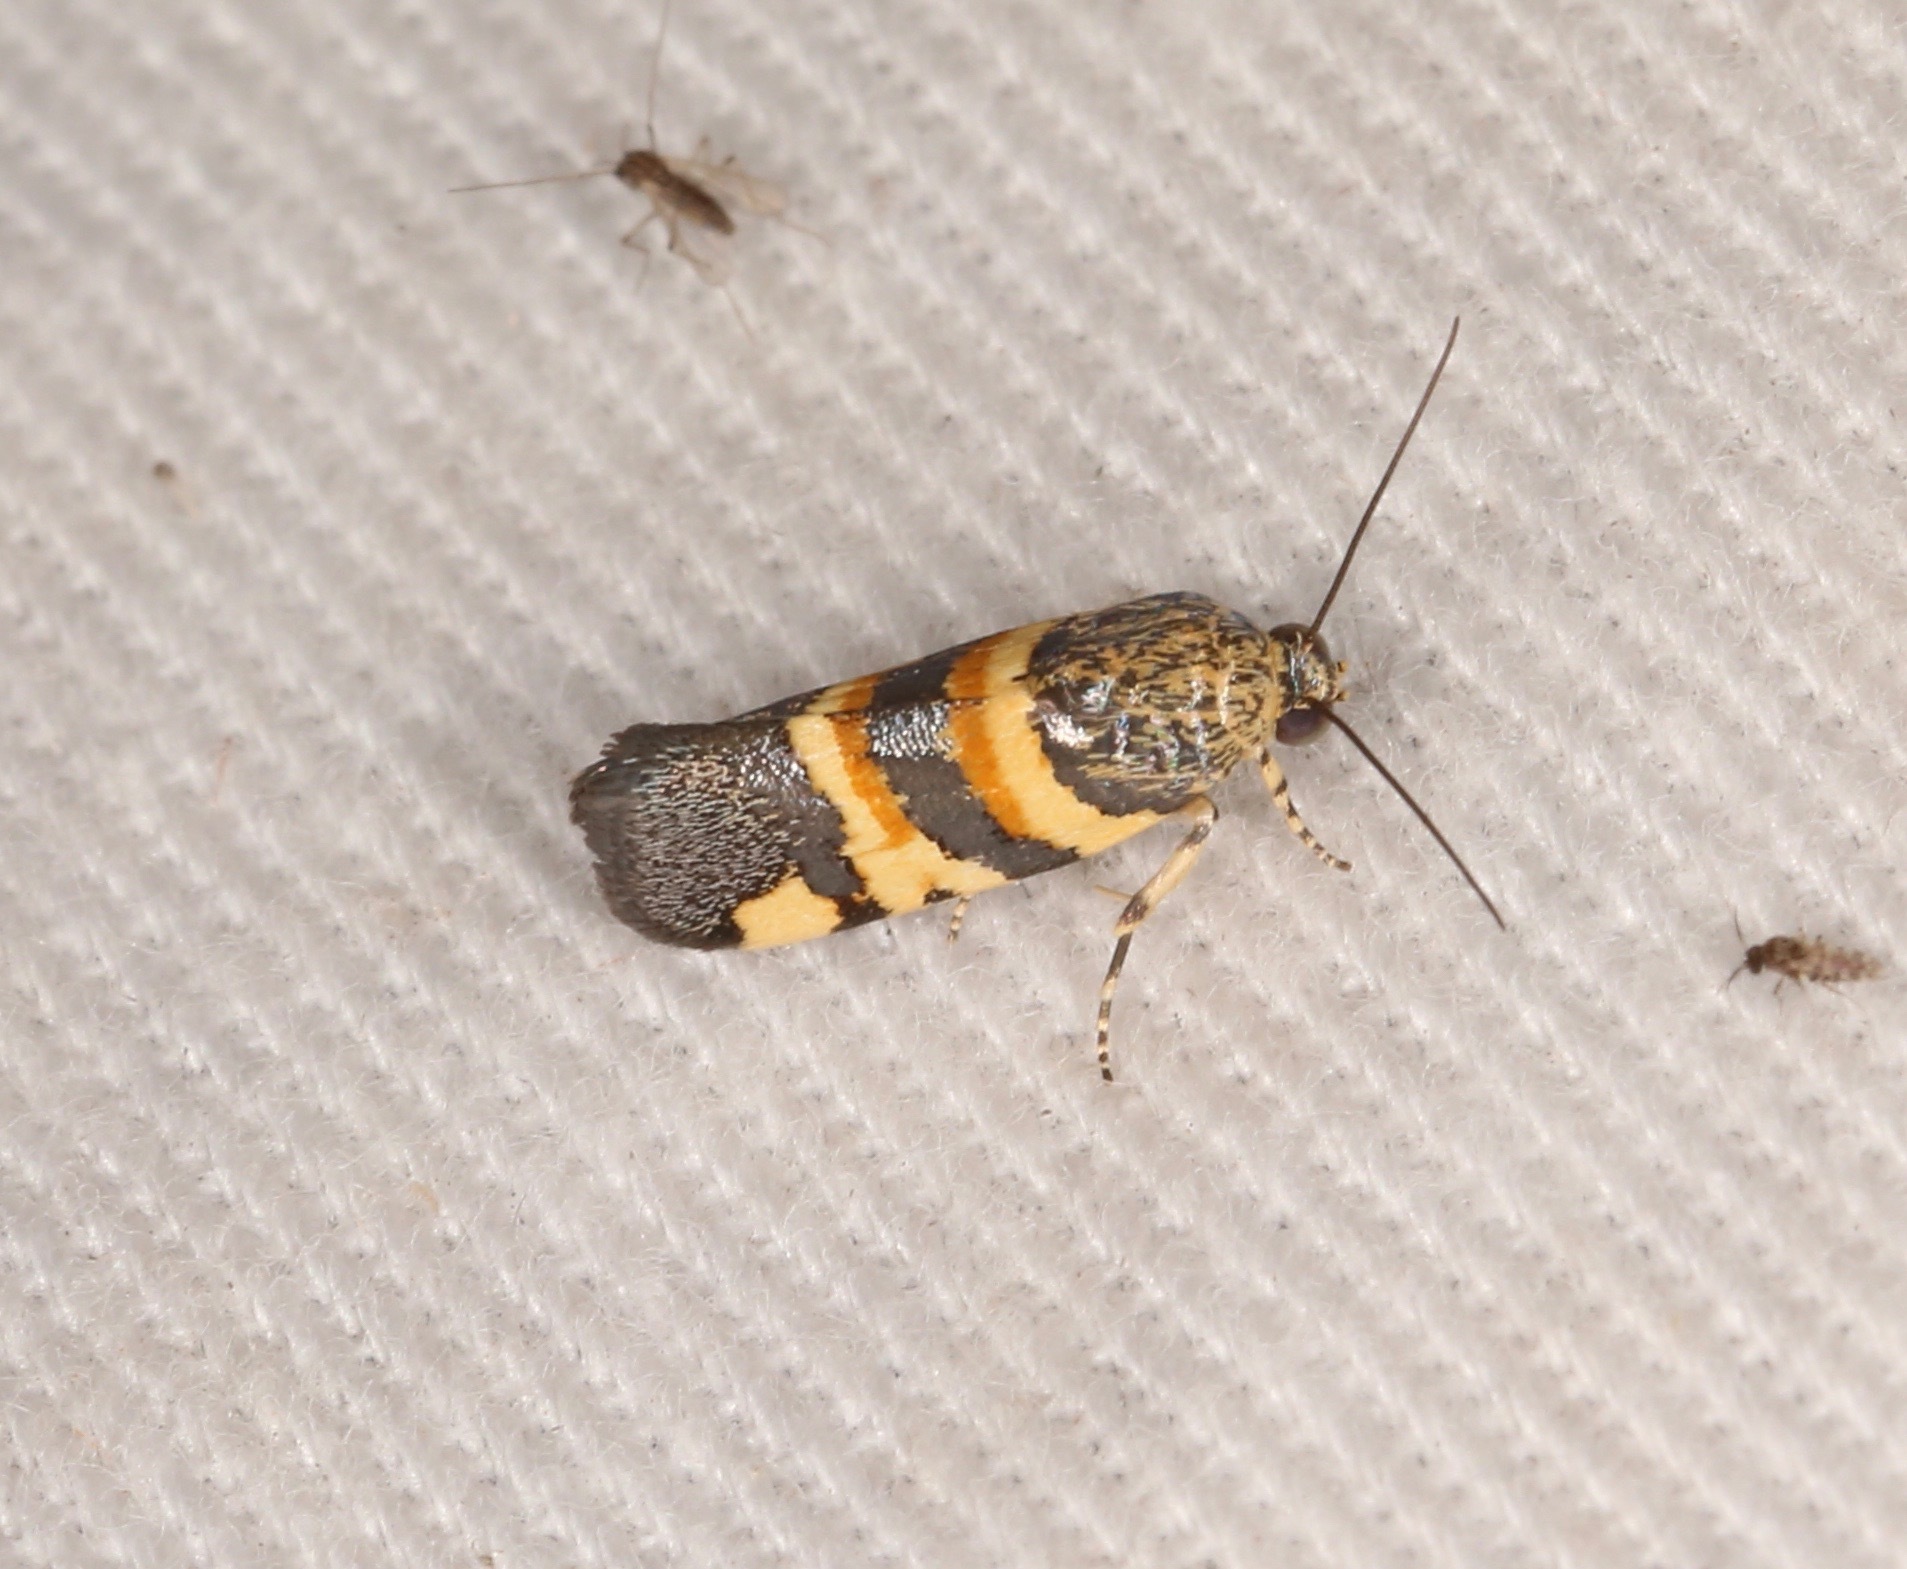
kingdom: Animalia
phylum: Arthropoda
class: Insecta
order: Lepidoptera
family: Noctuidae
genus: Spragueia
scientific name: Spragueia funeralis
